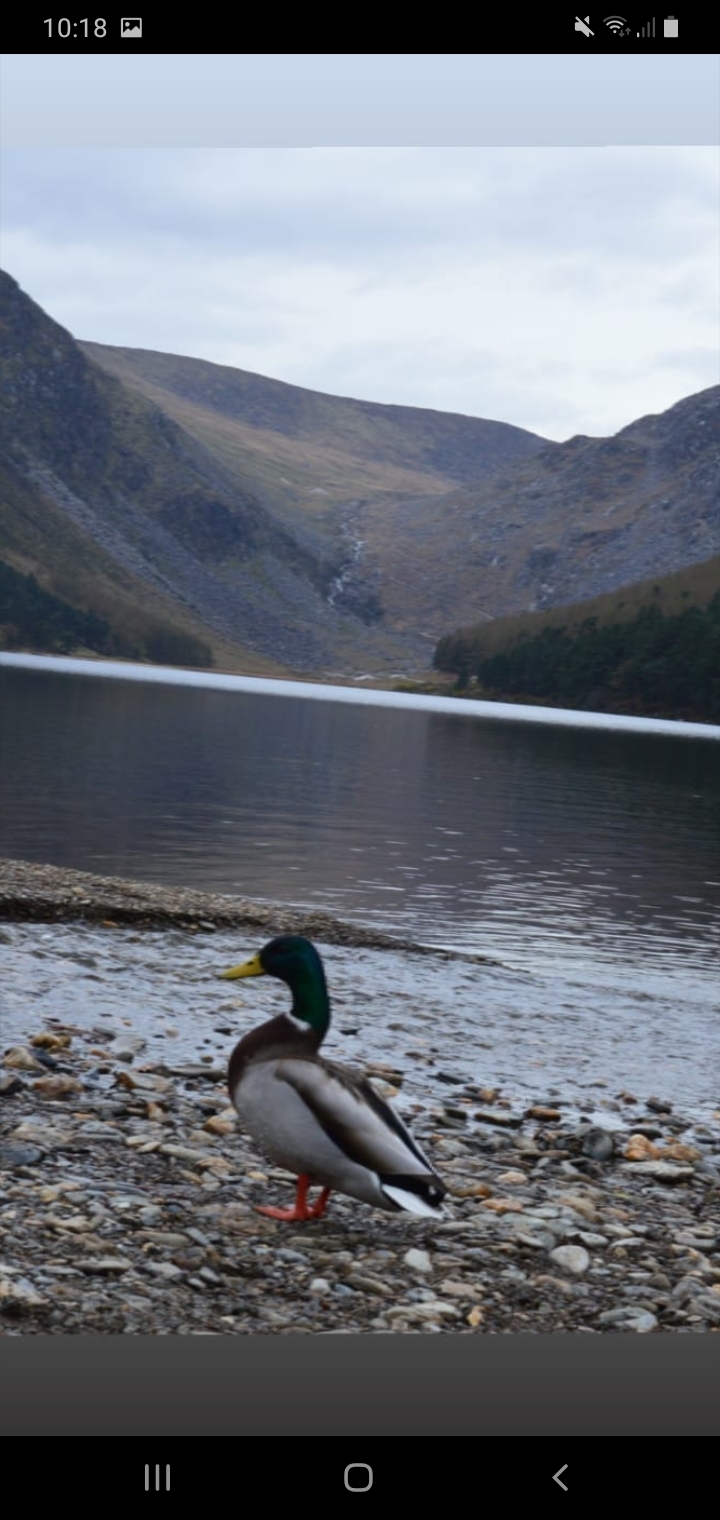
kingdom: Animalia
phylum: Chordata
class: Aves
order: Anseriformes
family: Anatidae
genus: Anas
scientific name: Anas platyrhynchos
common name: Mallard
